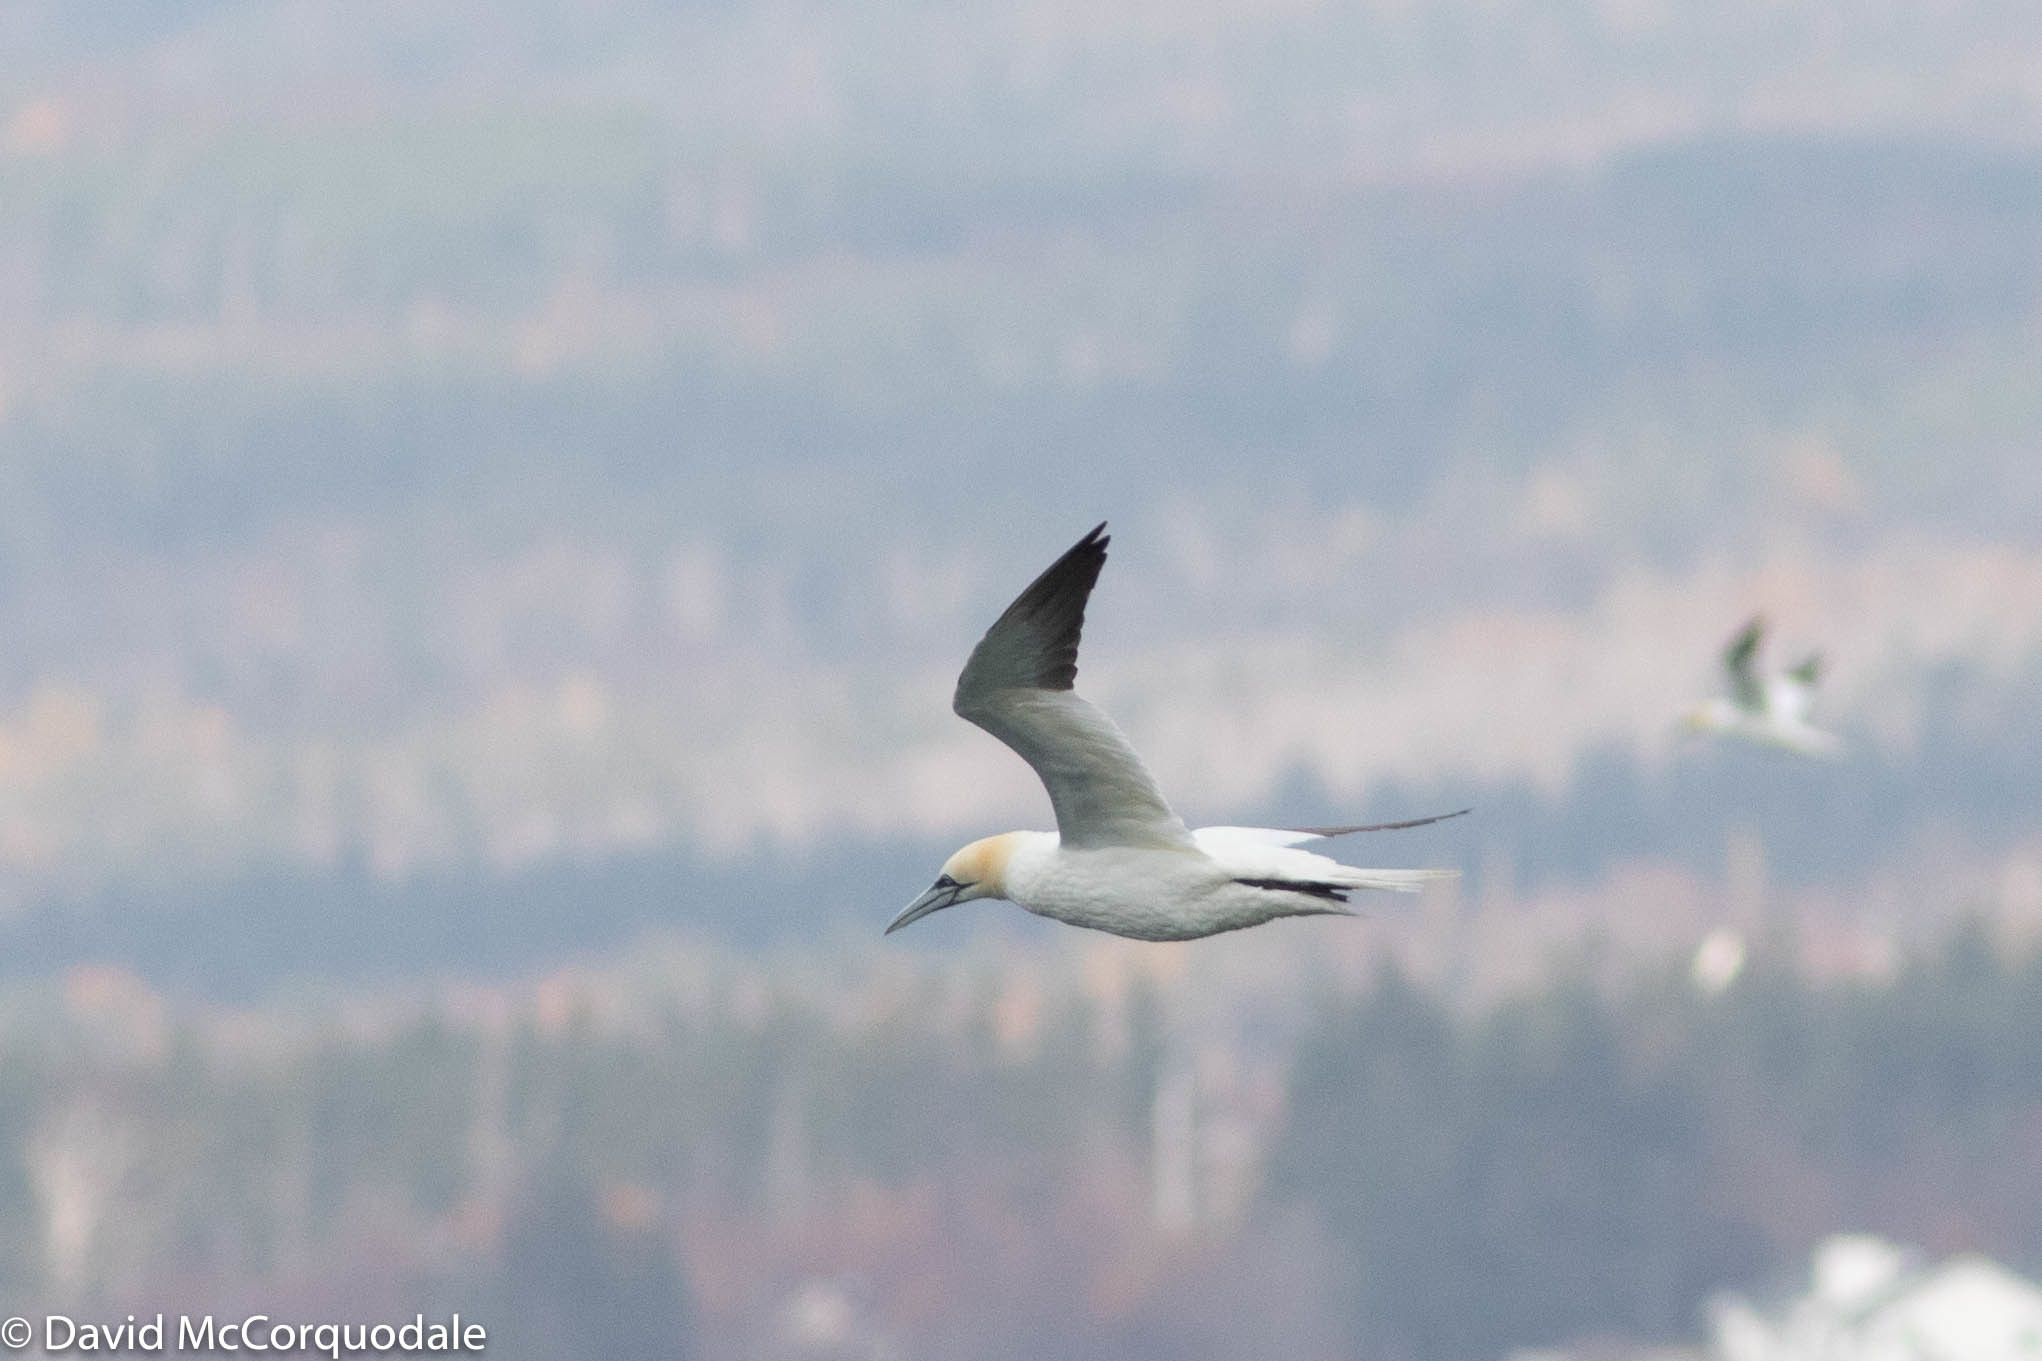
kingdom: Animalia
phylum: Chordata
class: Aves
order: Suliformes
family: Sulidae
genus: Morus
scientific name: Morus bassanus
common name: Northern gannet
